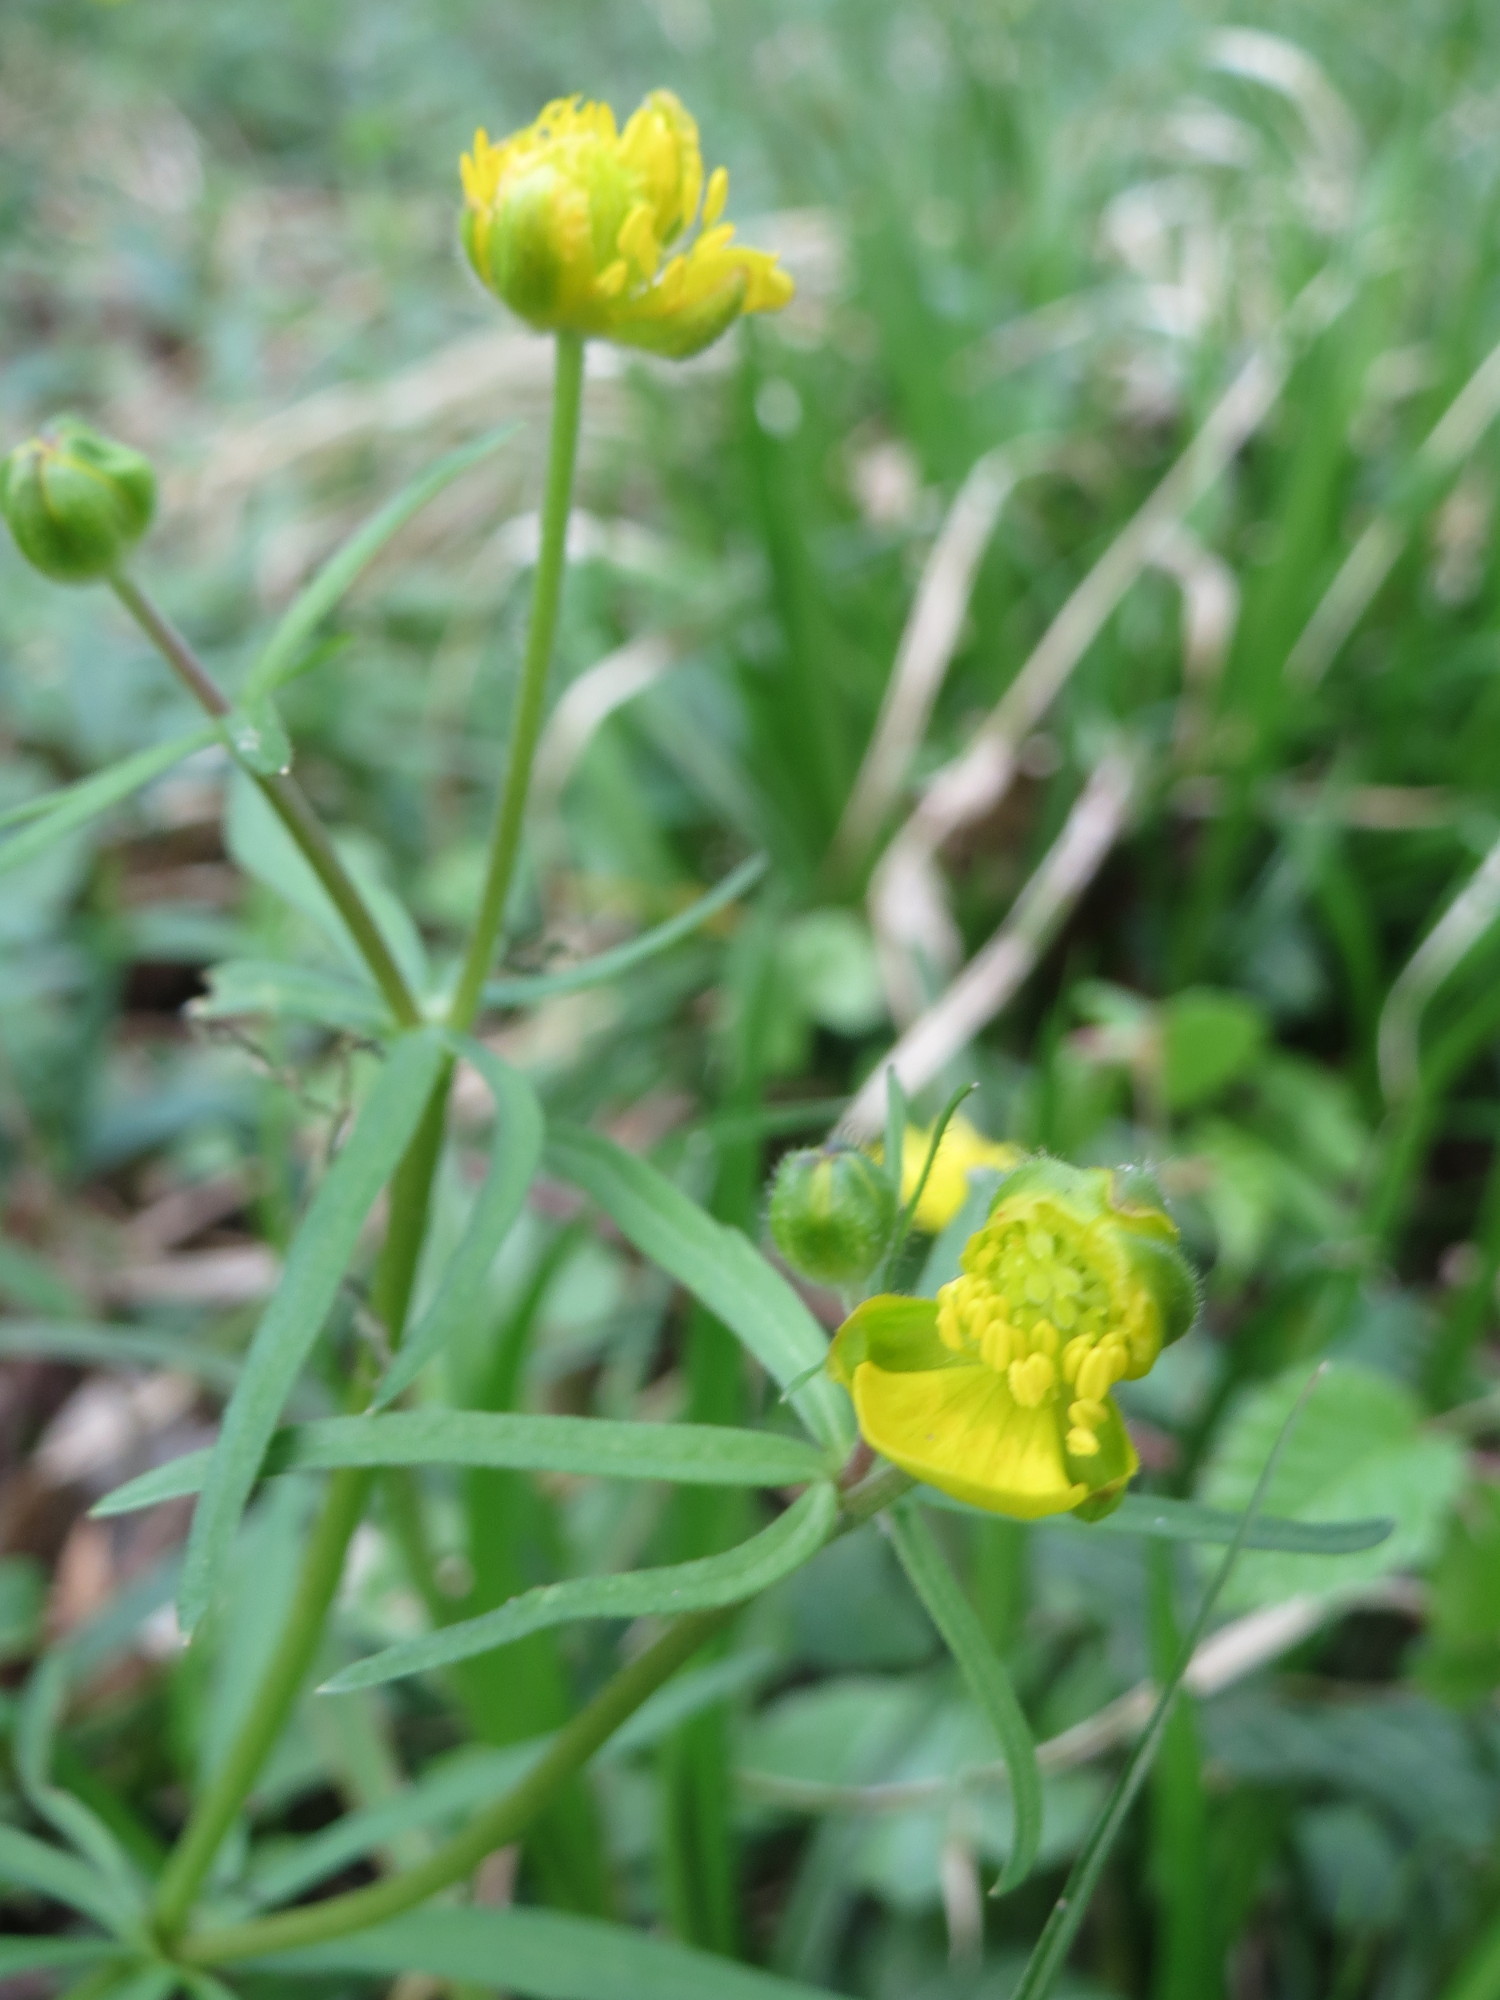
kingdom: Plantae
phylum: Tracheophyta
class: Magnoliopsida
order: Ranunculales
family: Ranunculaceae
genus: Ranunculus
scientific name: Ranunculus auricomus
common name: Goldilocks buttercup
